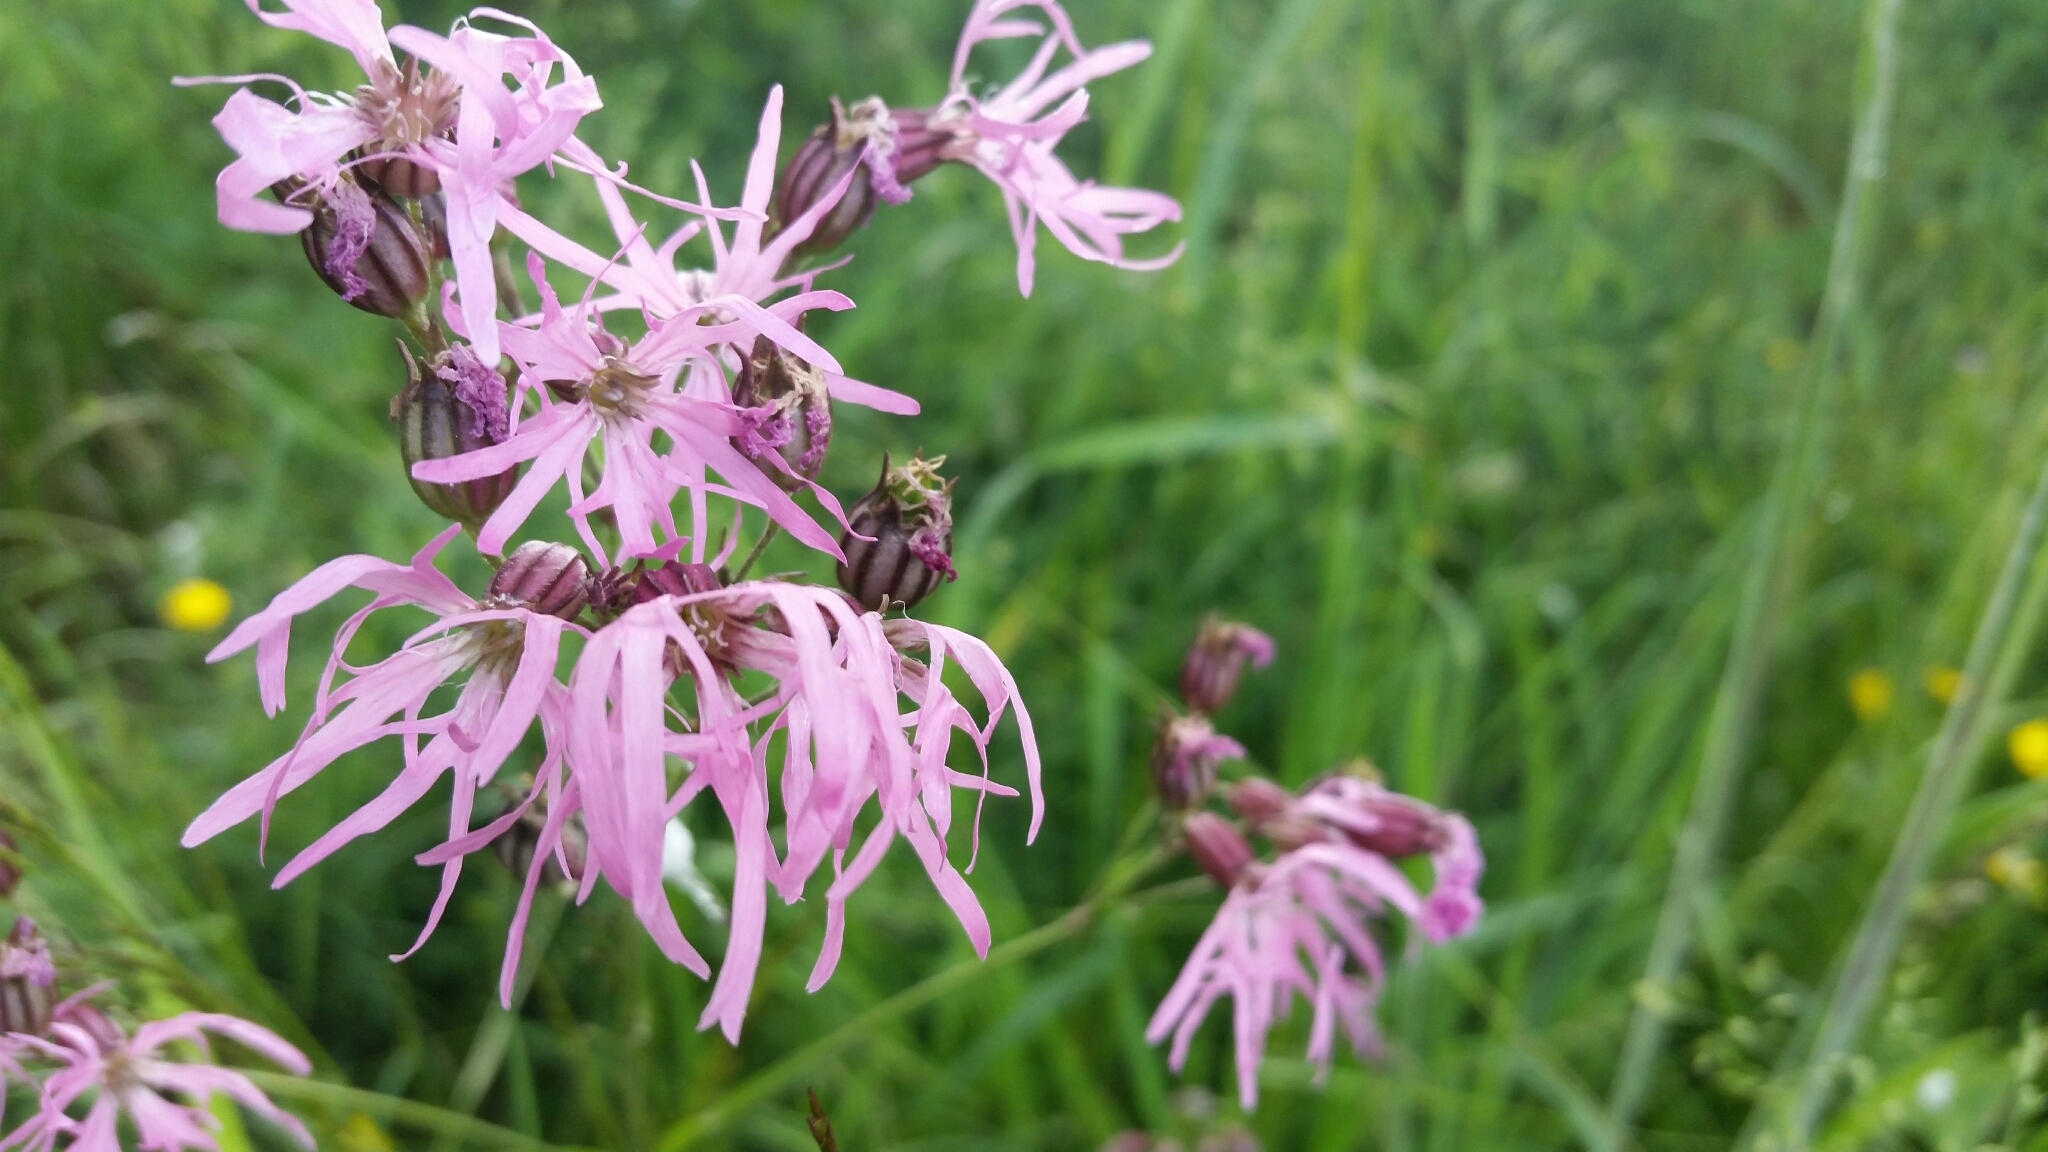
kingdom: Plantae
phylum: Tracheophyta
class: Magnoliopsida
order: Caryophyllales
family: Caryophyllaceae
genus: Silene
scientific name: Silene flos-cuculi
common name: Ragged-robin
